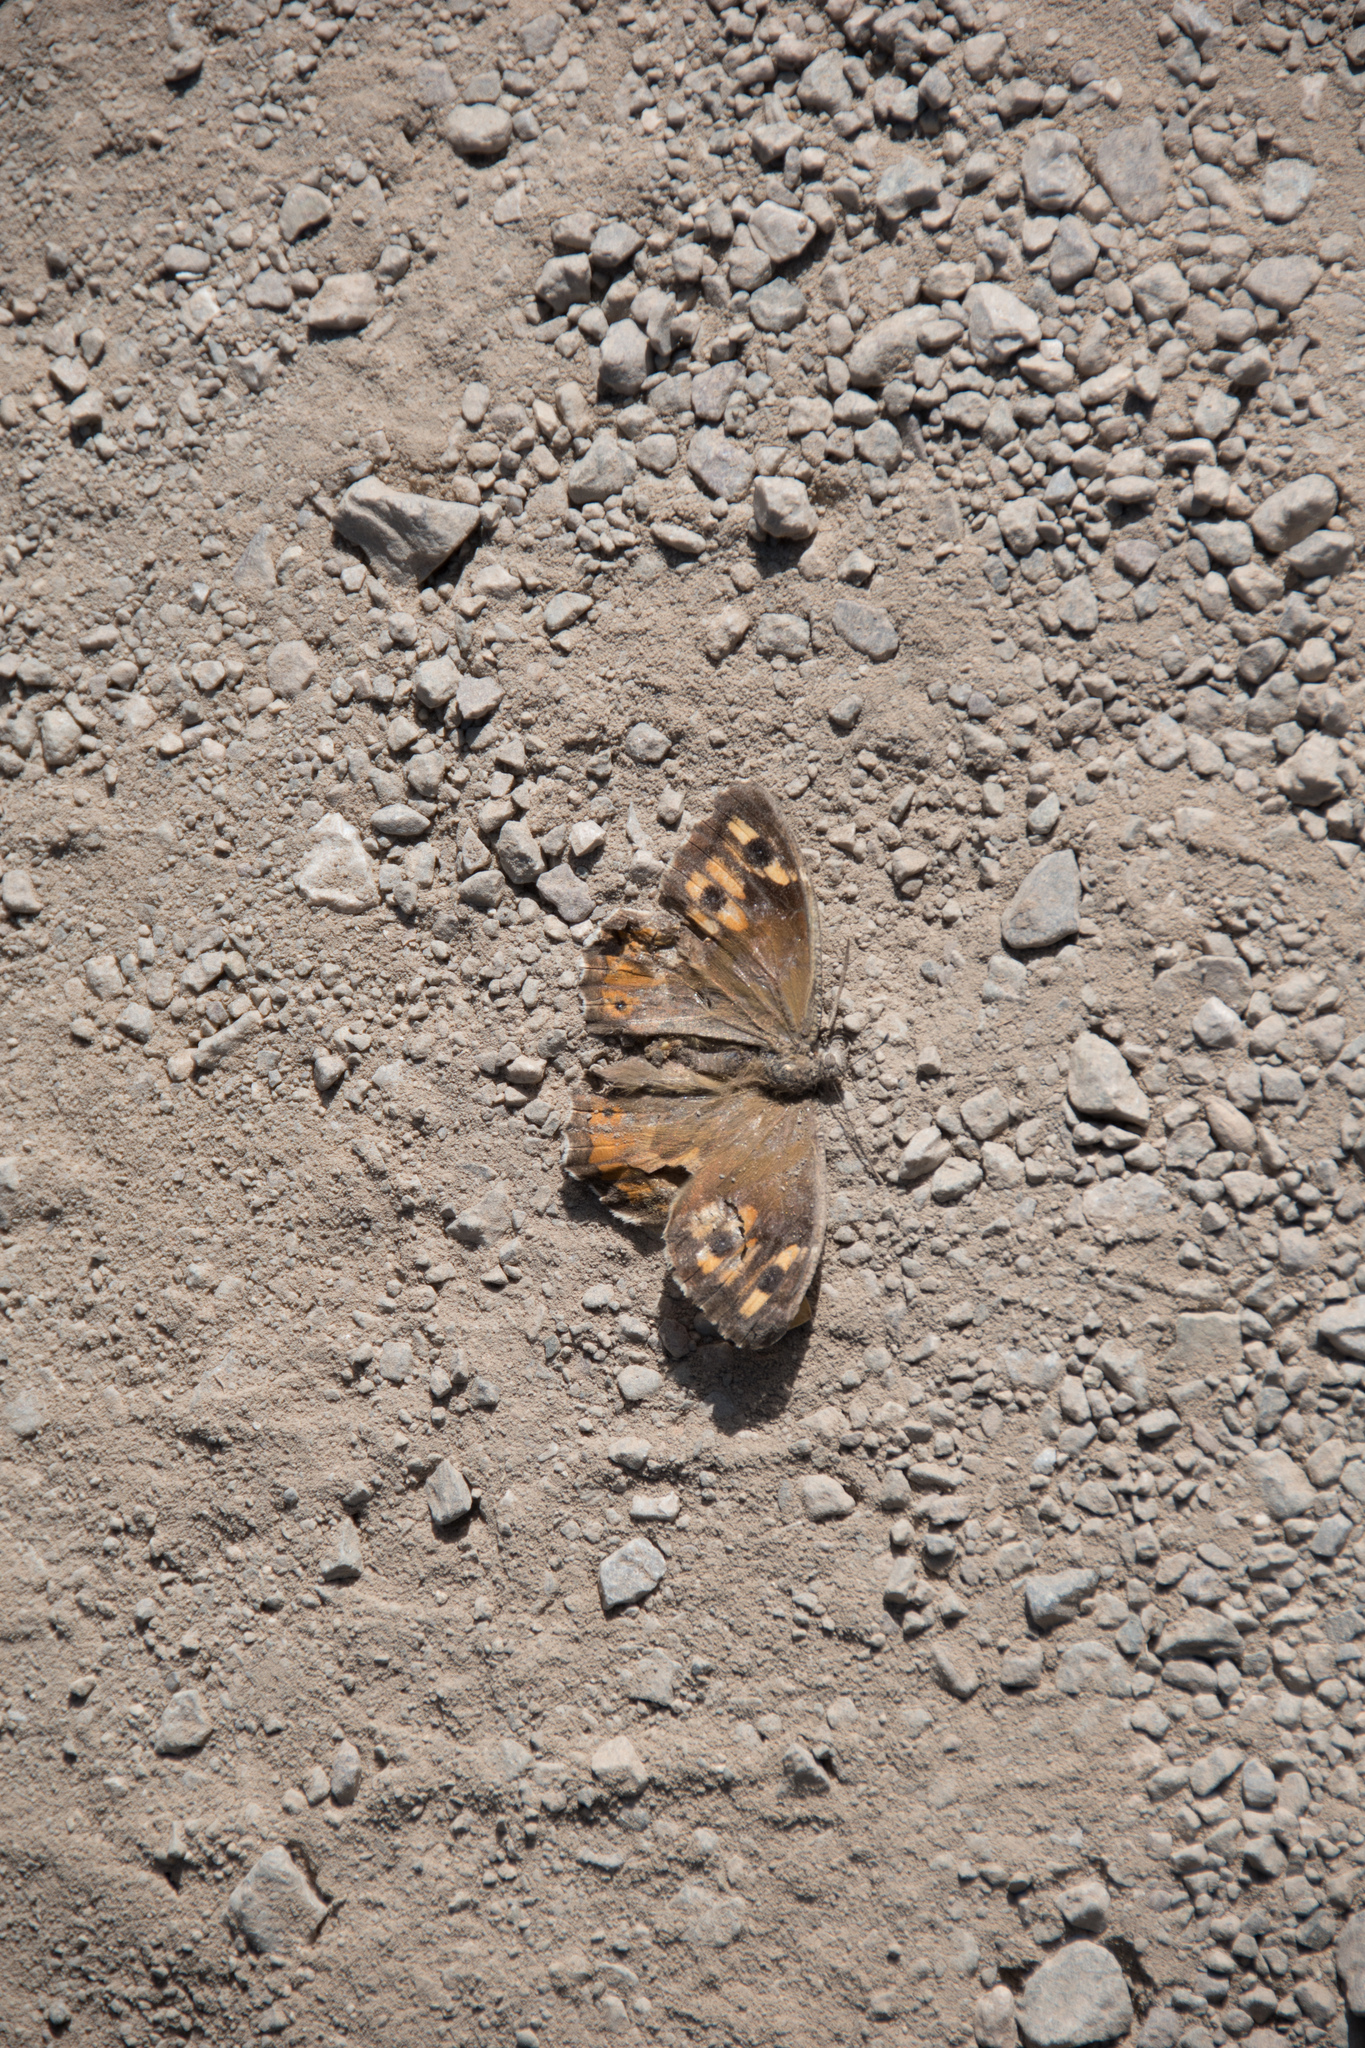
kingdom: Animalia
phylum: Arthropoda
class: Insecta
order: Lepidoptera
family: Nymphalidae
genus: Hipparchia
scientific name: Hipparchia cretica
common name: Cretan grayling
